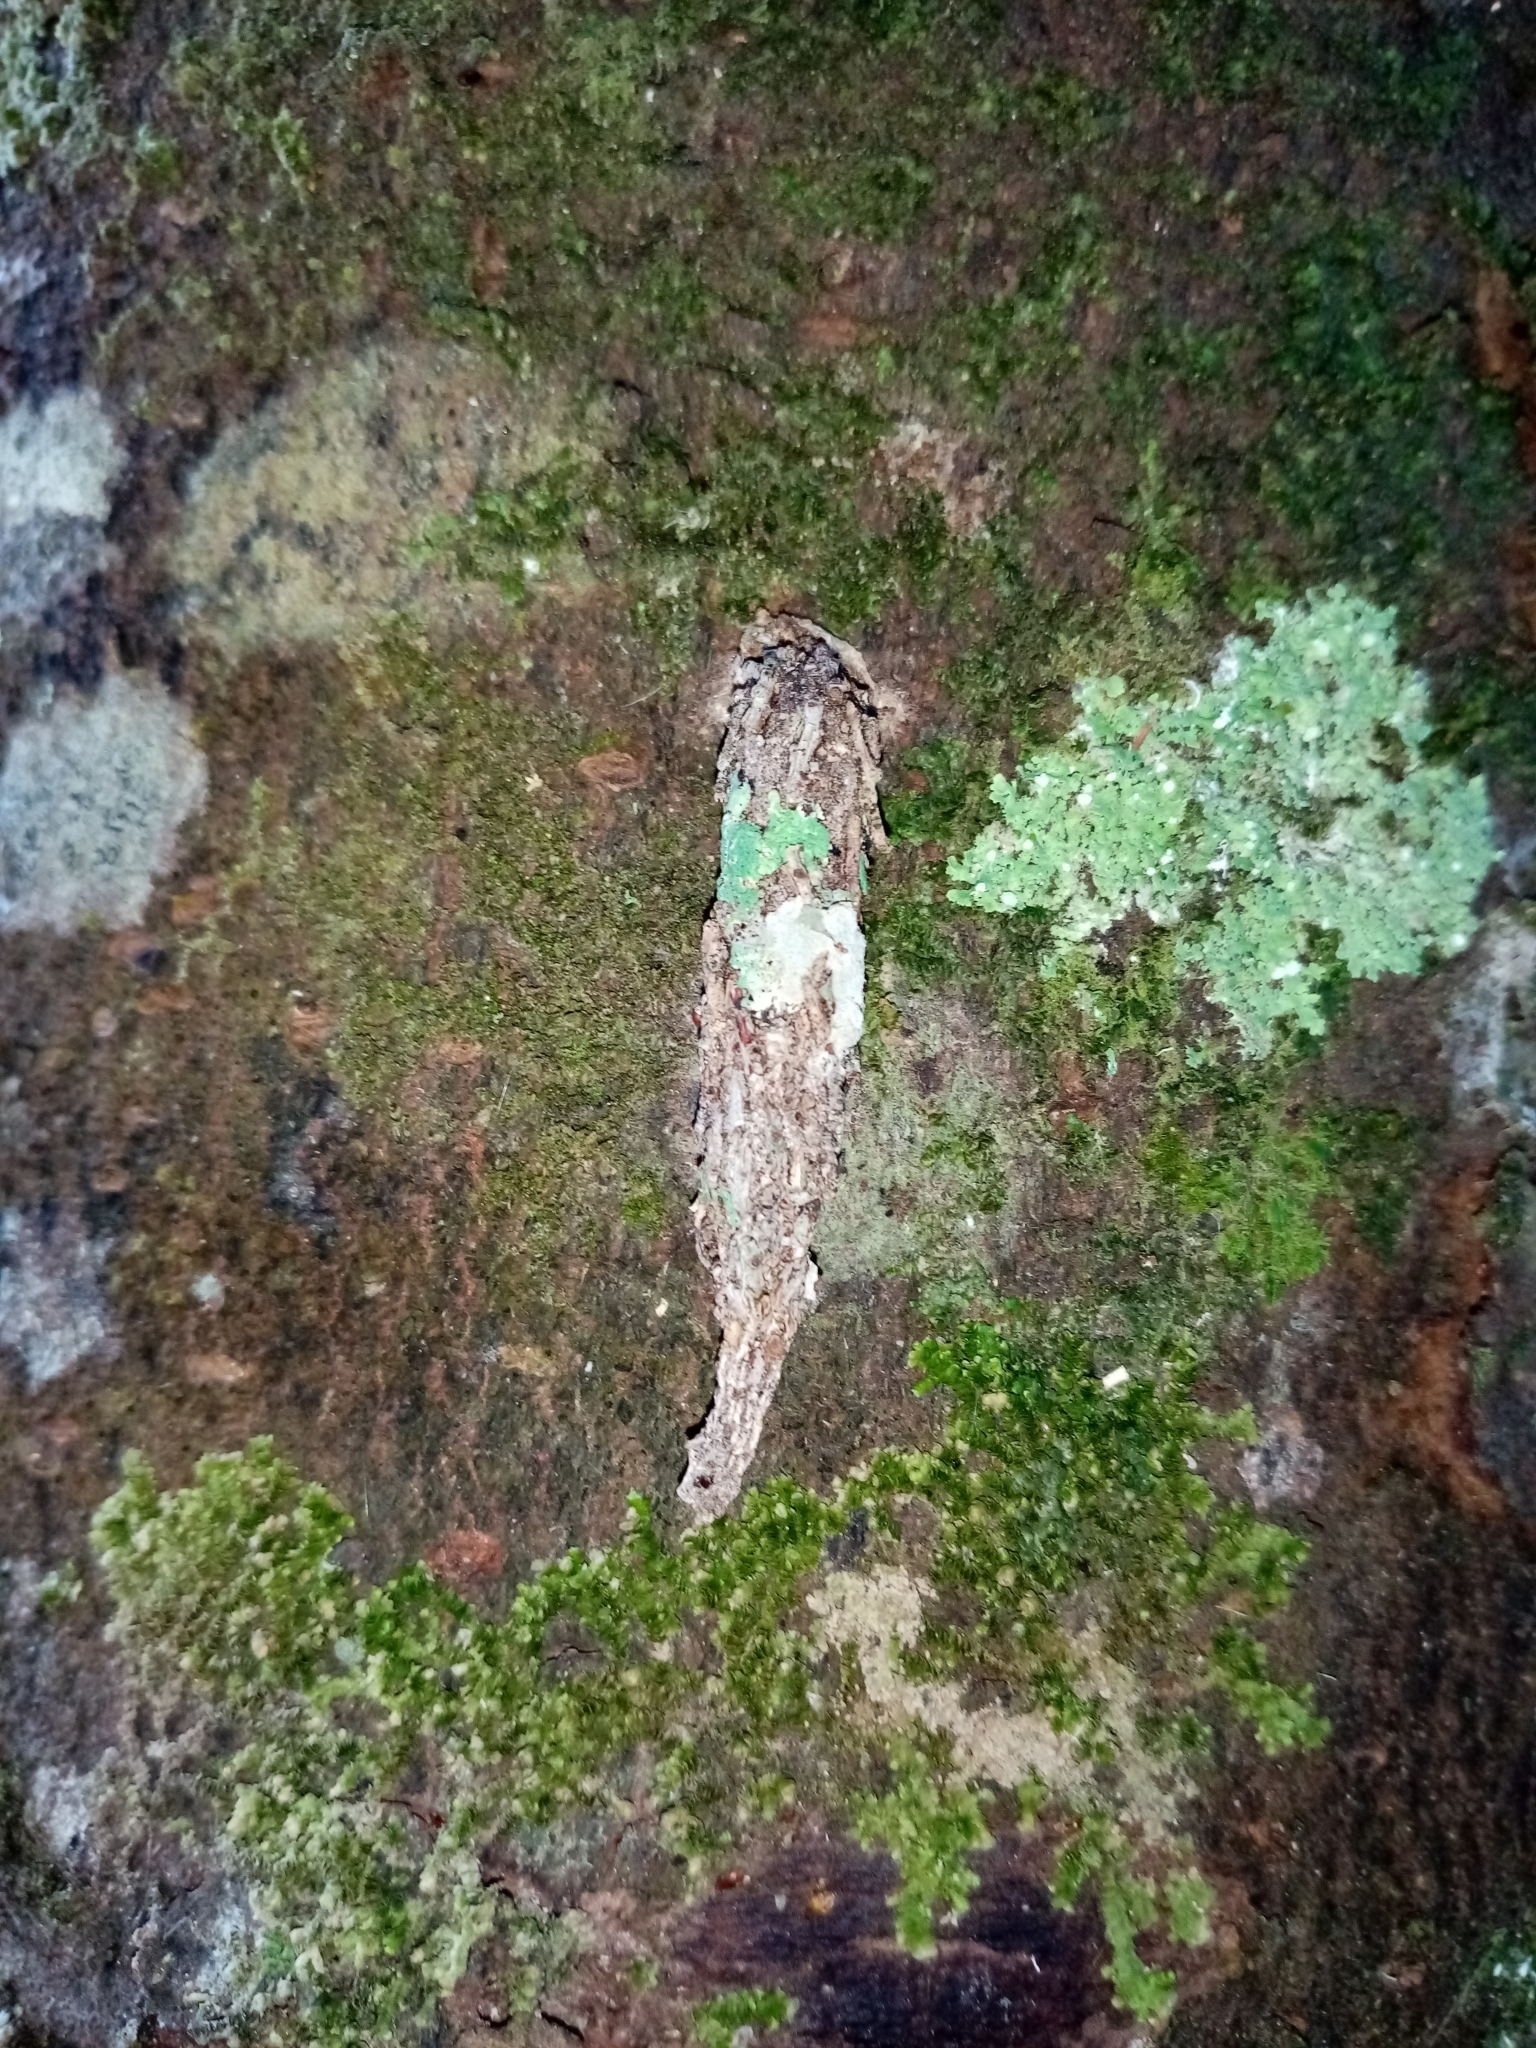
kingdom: Animalia
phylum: Arthropoda
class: Insecta
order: Lepidoptera
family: Psychidae
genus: Liothula
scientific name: Liothula omnivora
